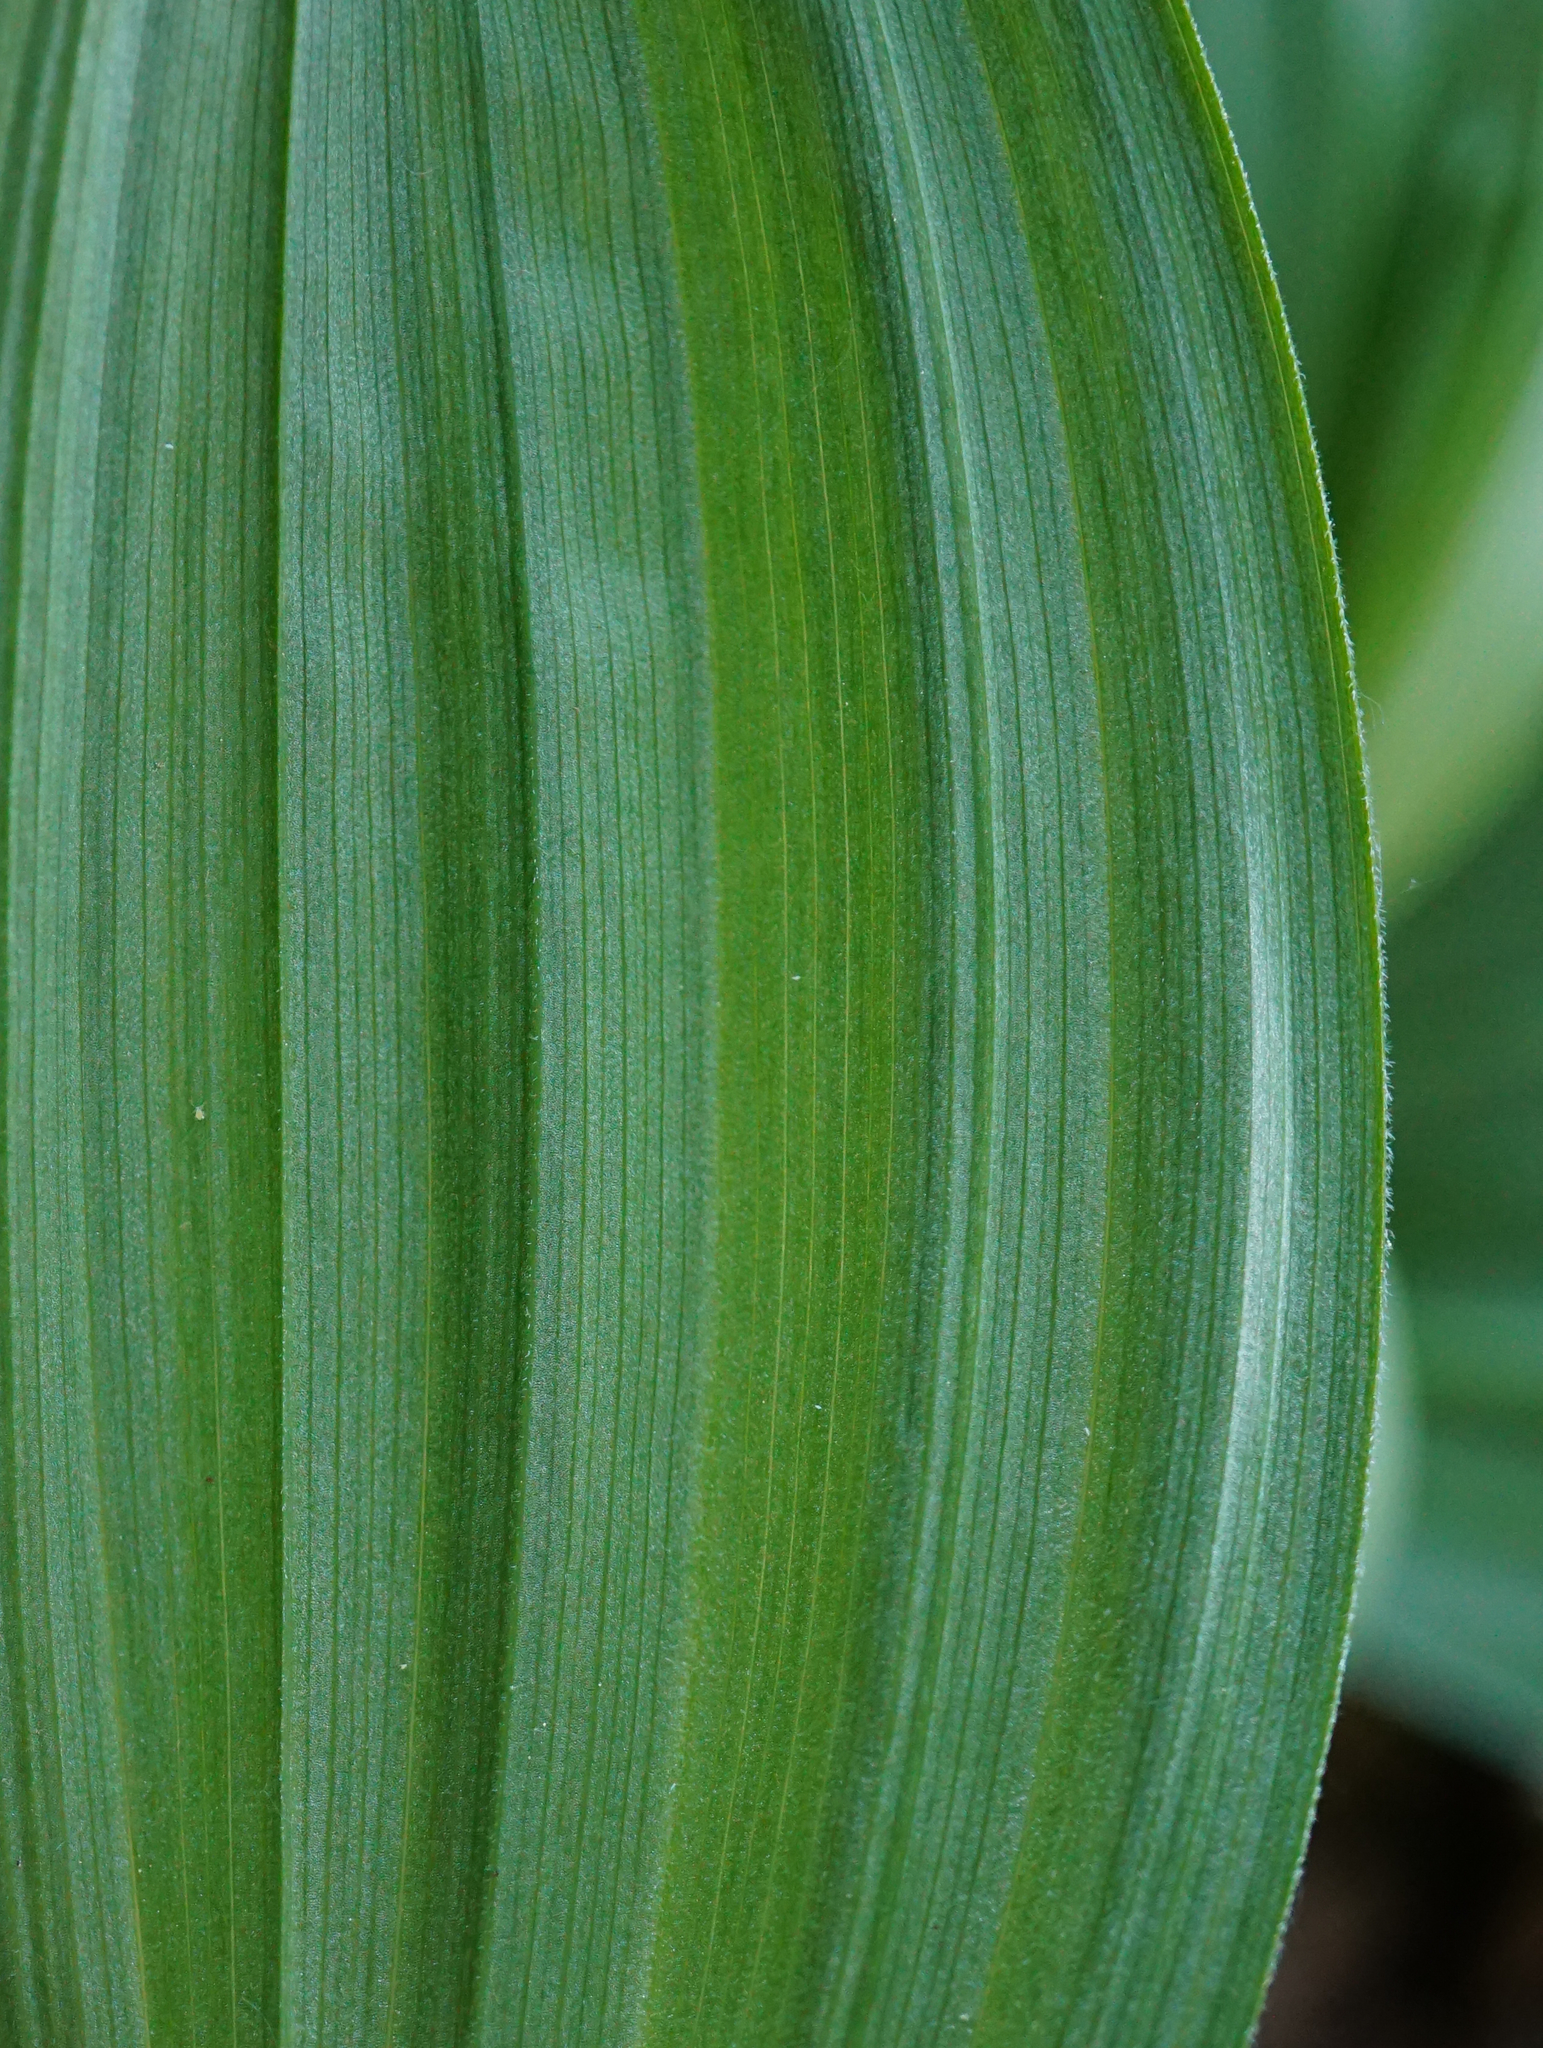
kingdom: Plantae
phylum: Tracheophyta
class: Liliopsida
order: Liliales
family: Melanthiaceae
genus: Veratrum
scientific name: Veratrum nigrum
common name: Black veratrum
